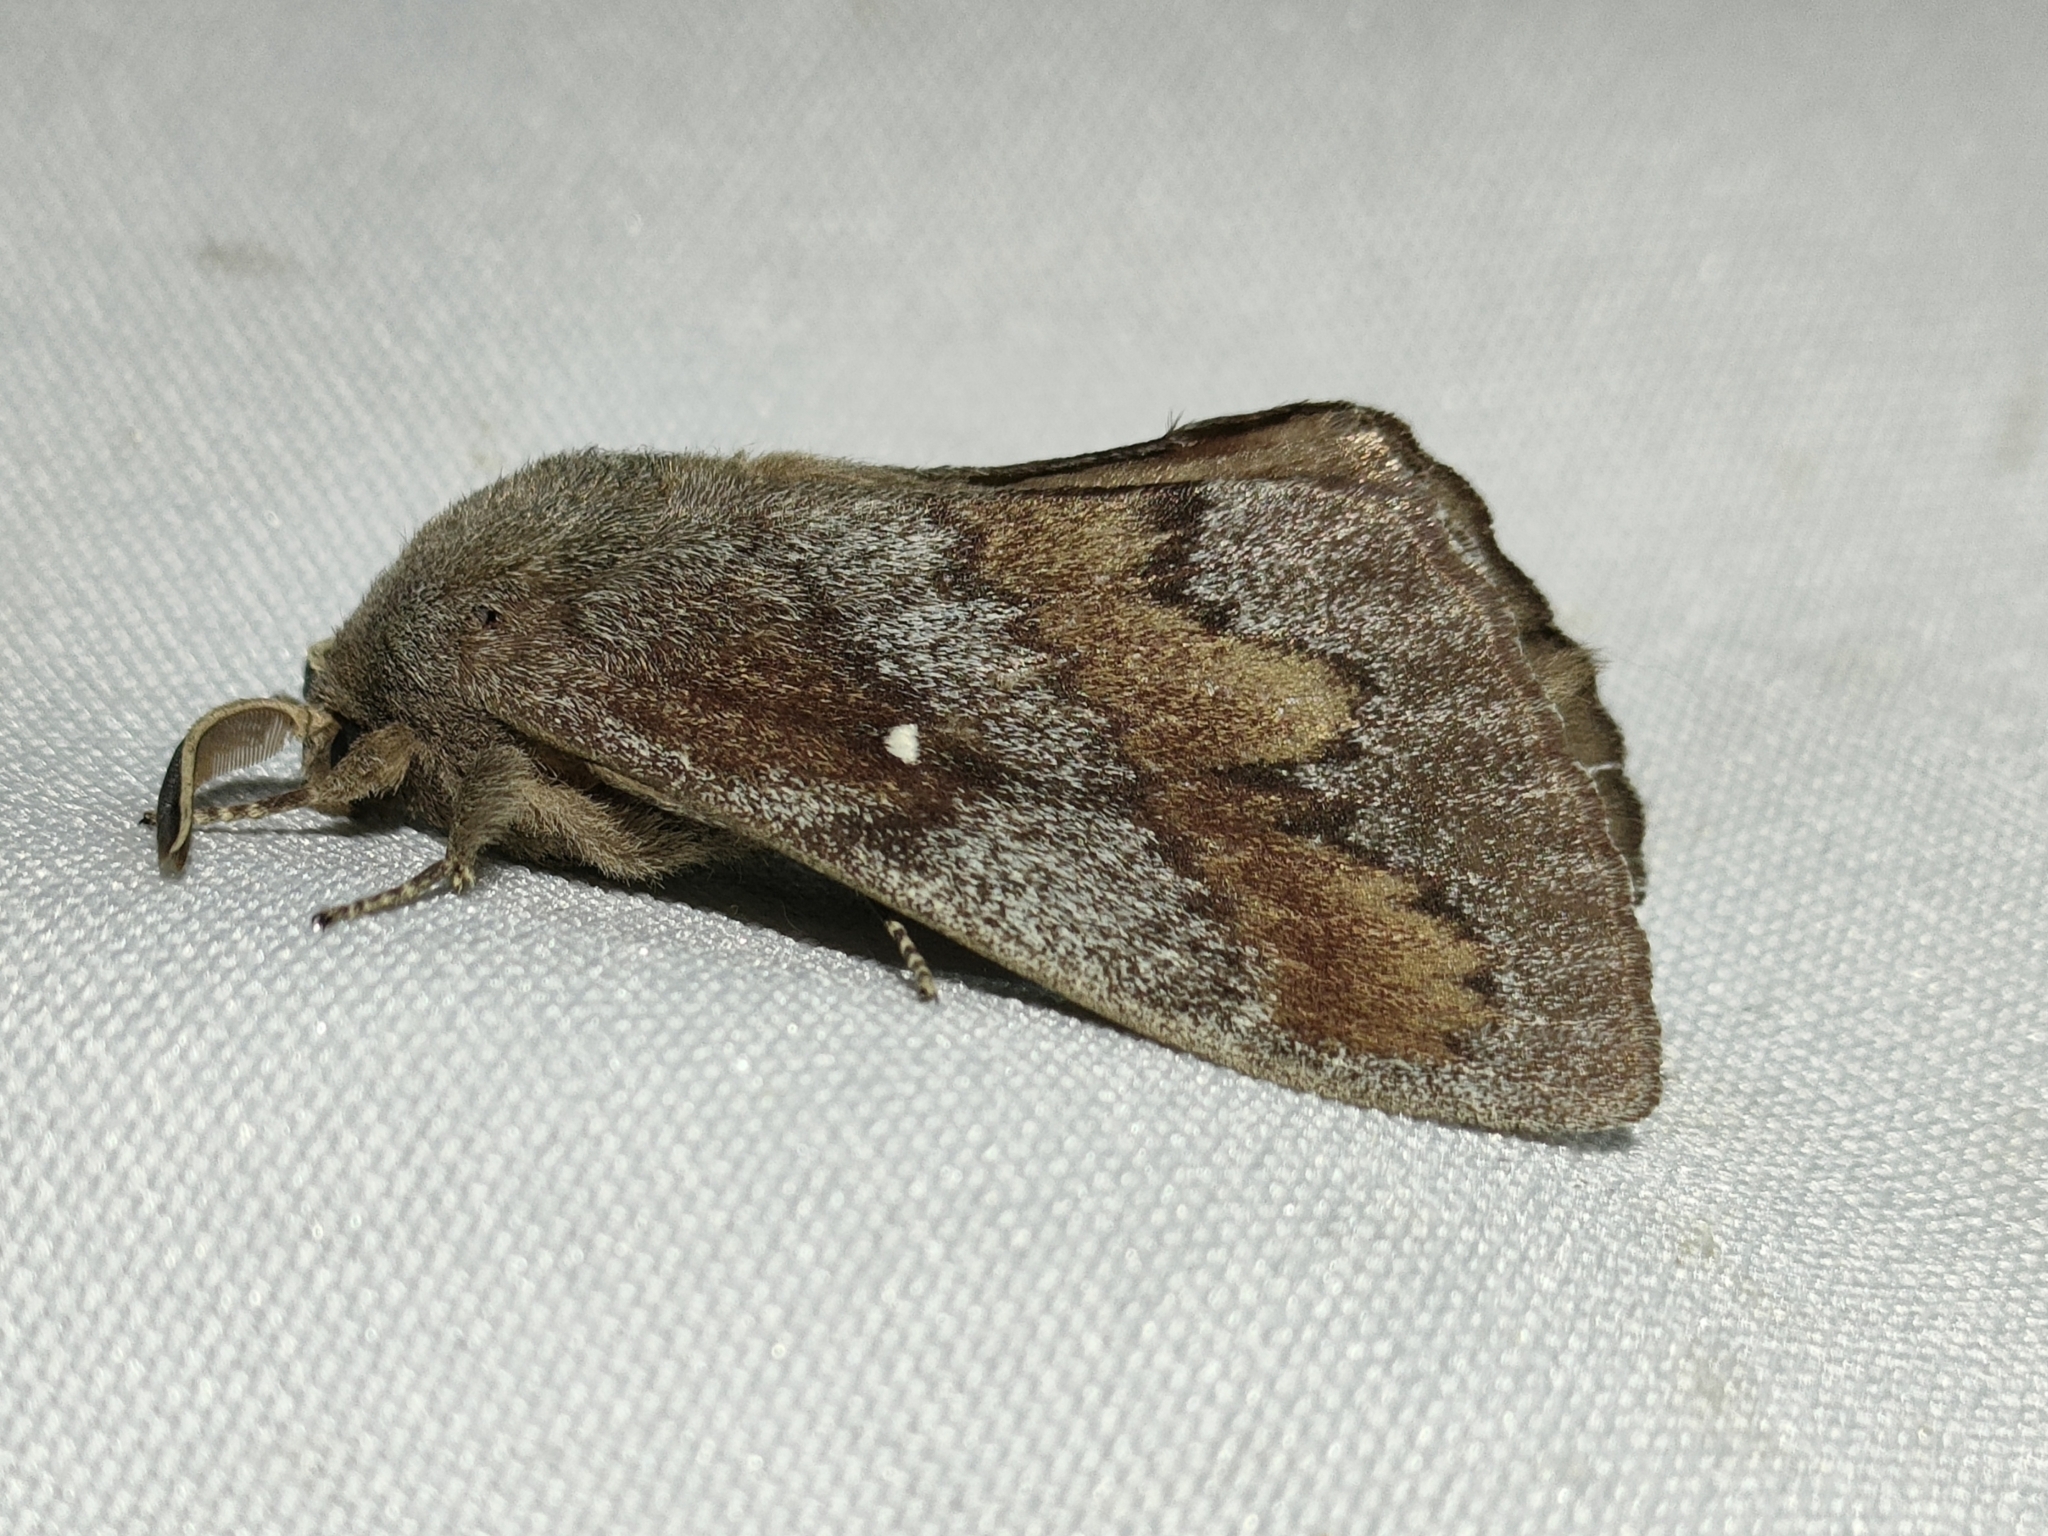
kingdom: Animalia
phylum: Arthropoda
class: Insecta
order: Lepidoptera
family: Lasiocampidae
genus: Dendrolimus
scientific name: Dendrolimus pini
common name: Pine-tree lappet
